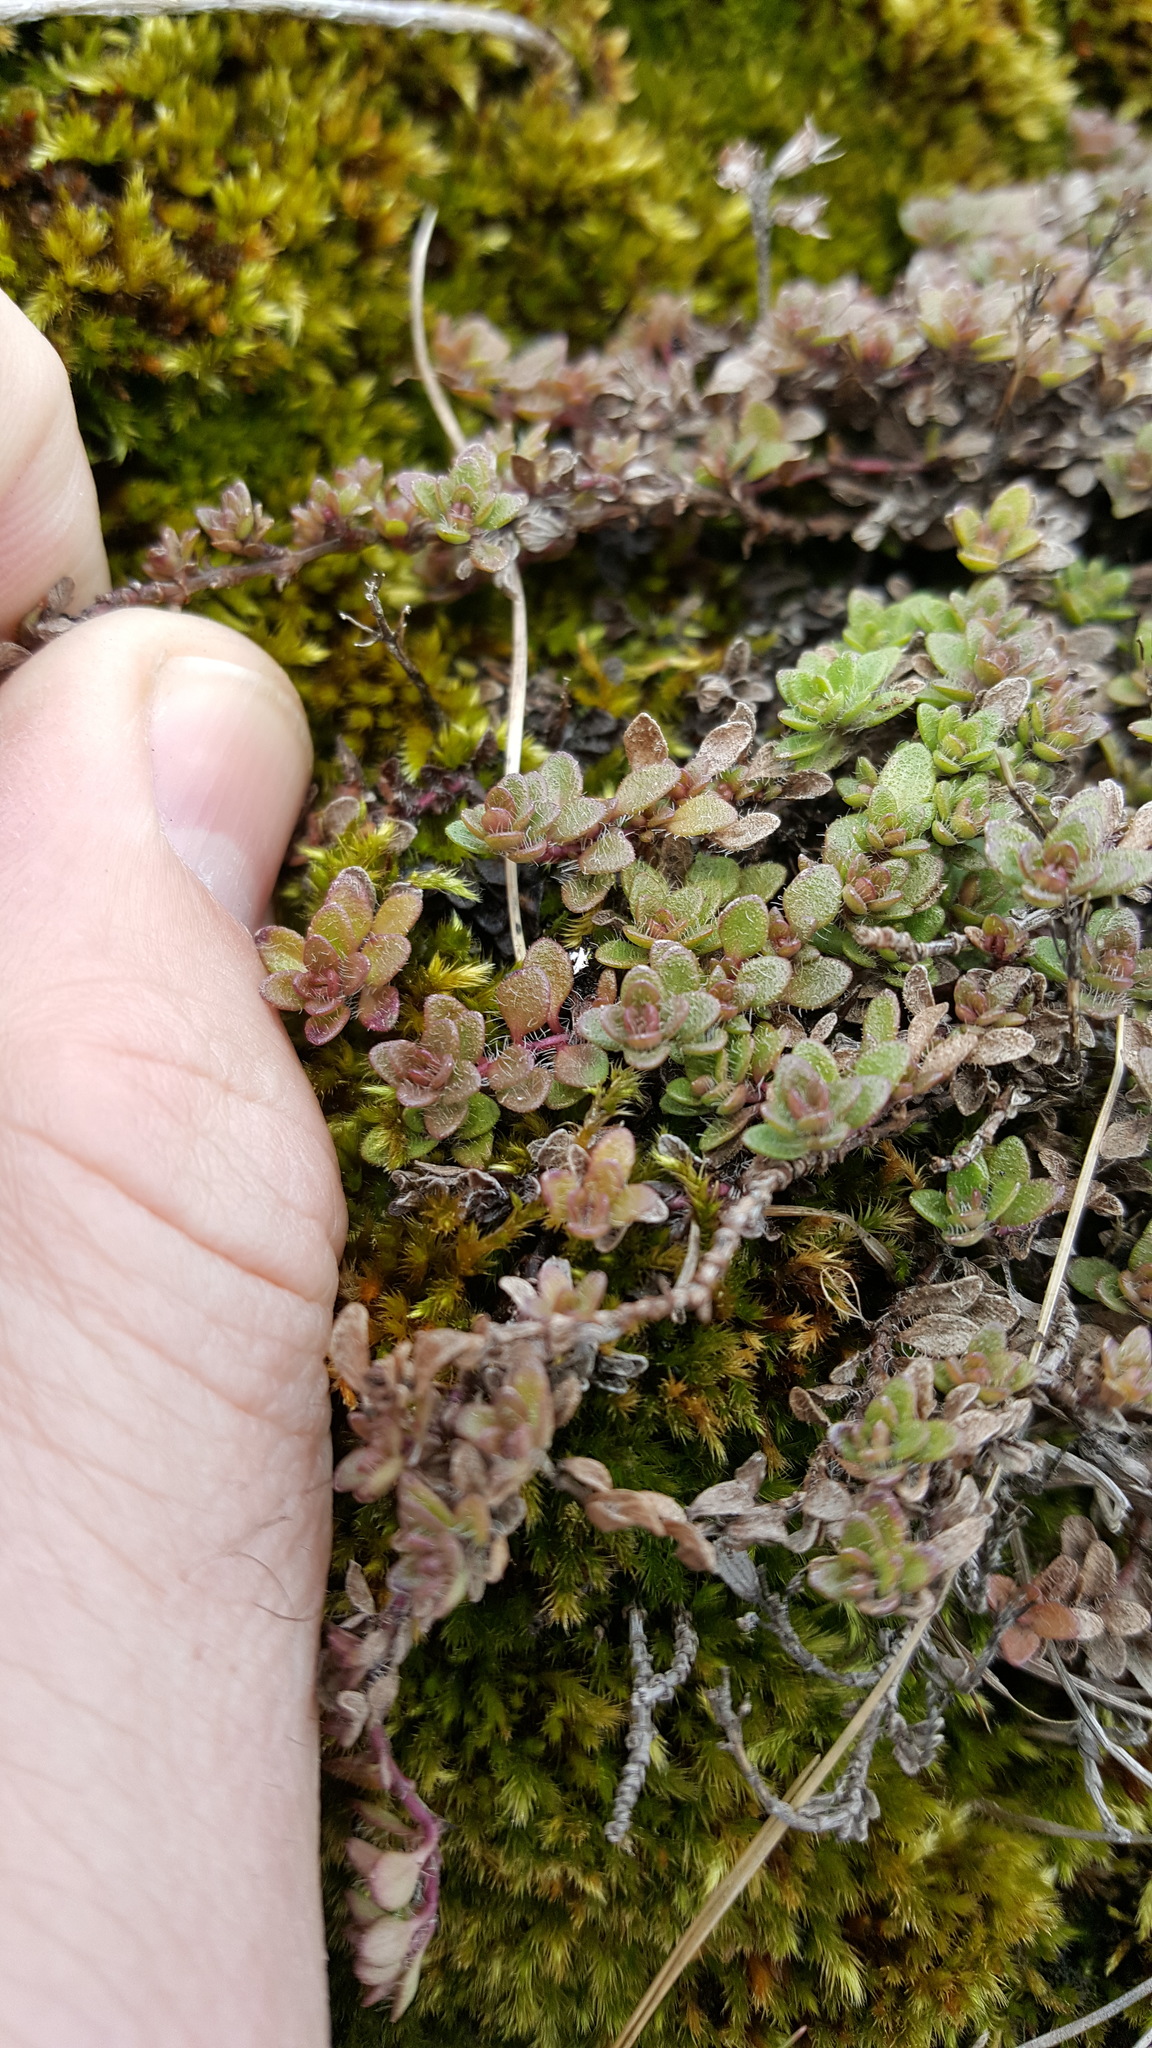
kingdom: Plantae
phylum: Tracheophyta
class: Magnoliopsida
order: Lamiales
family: Lamiaceae
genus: Thymus
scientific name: Thymus praecox
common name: Wild thyme
